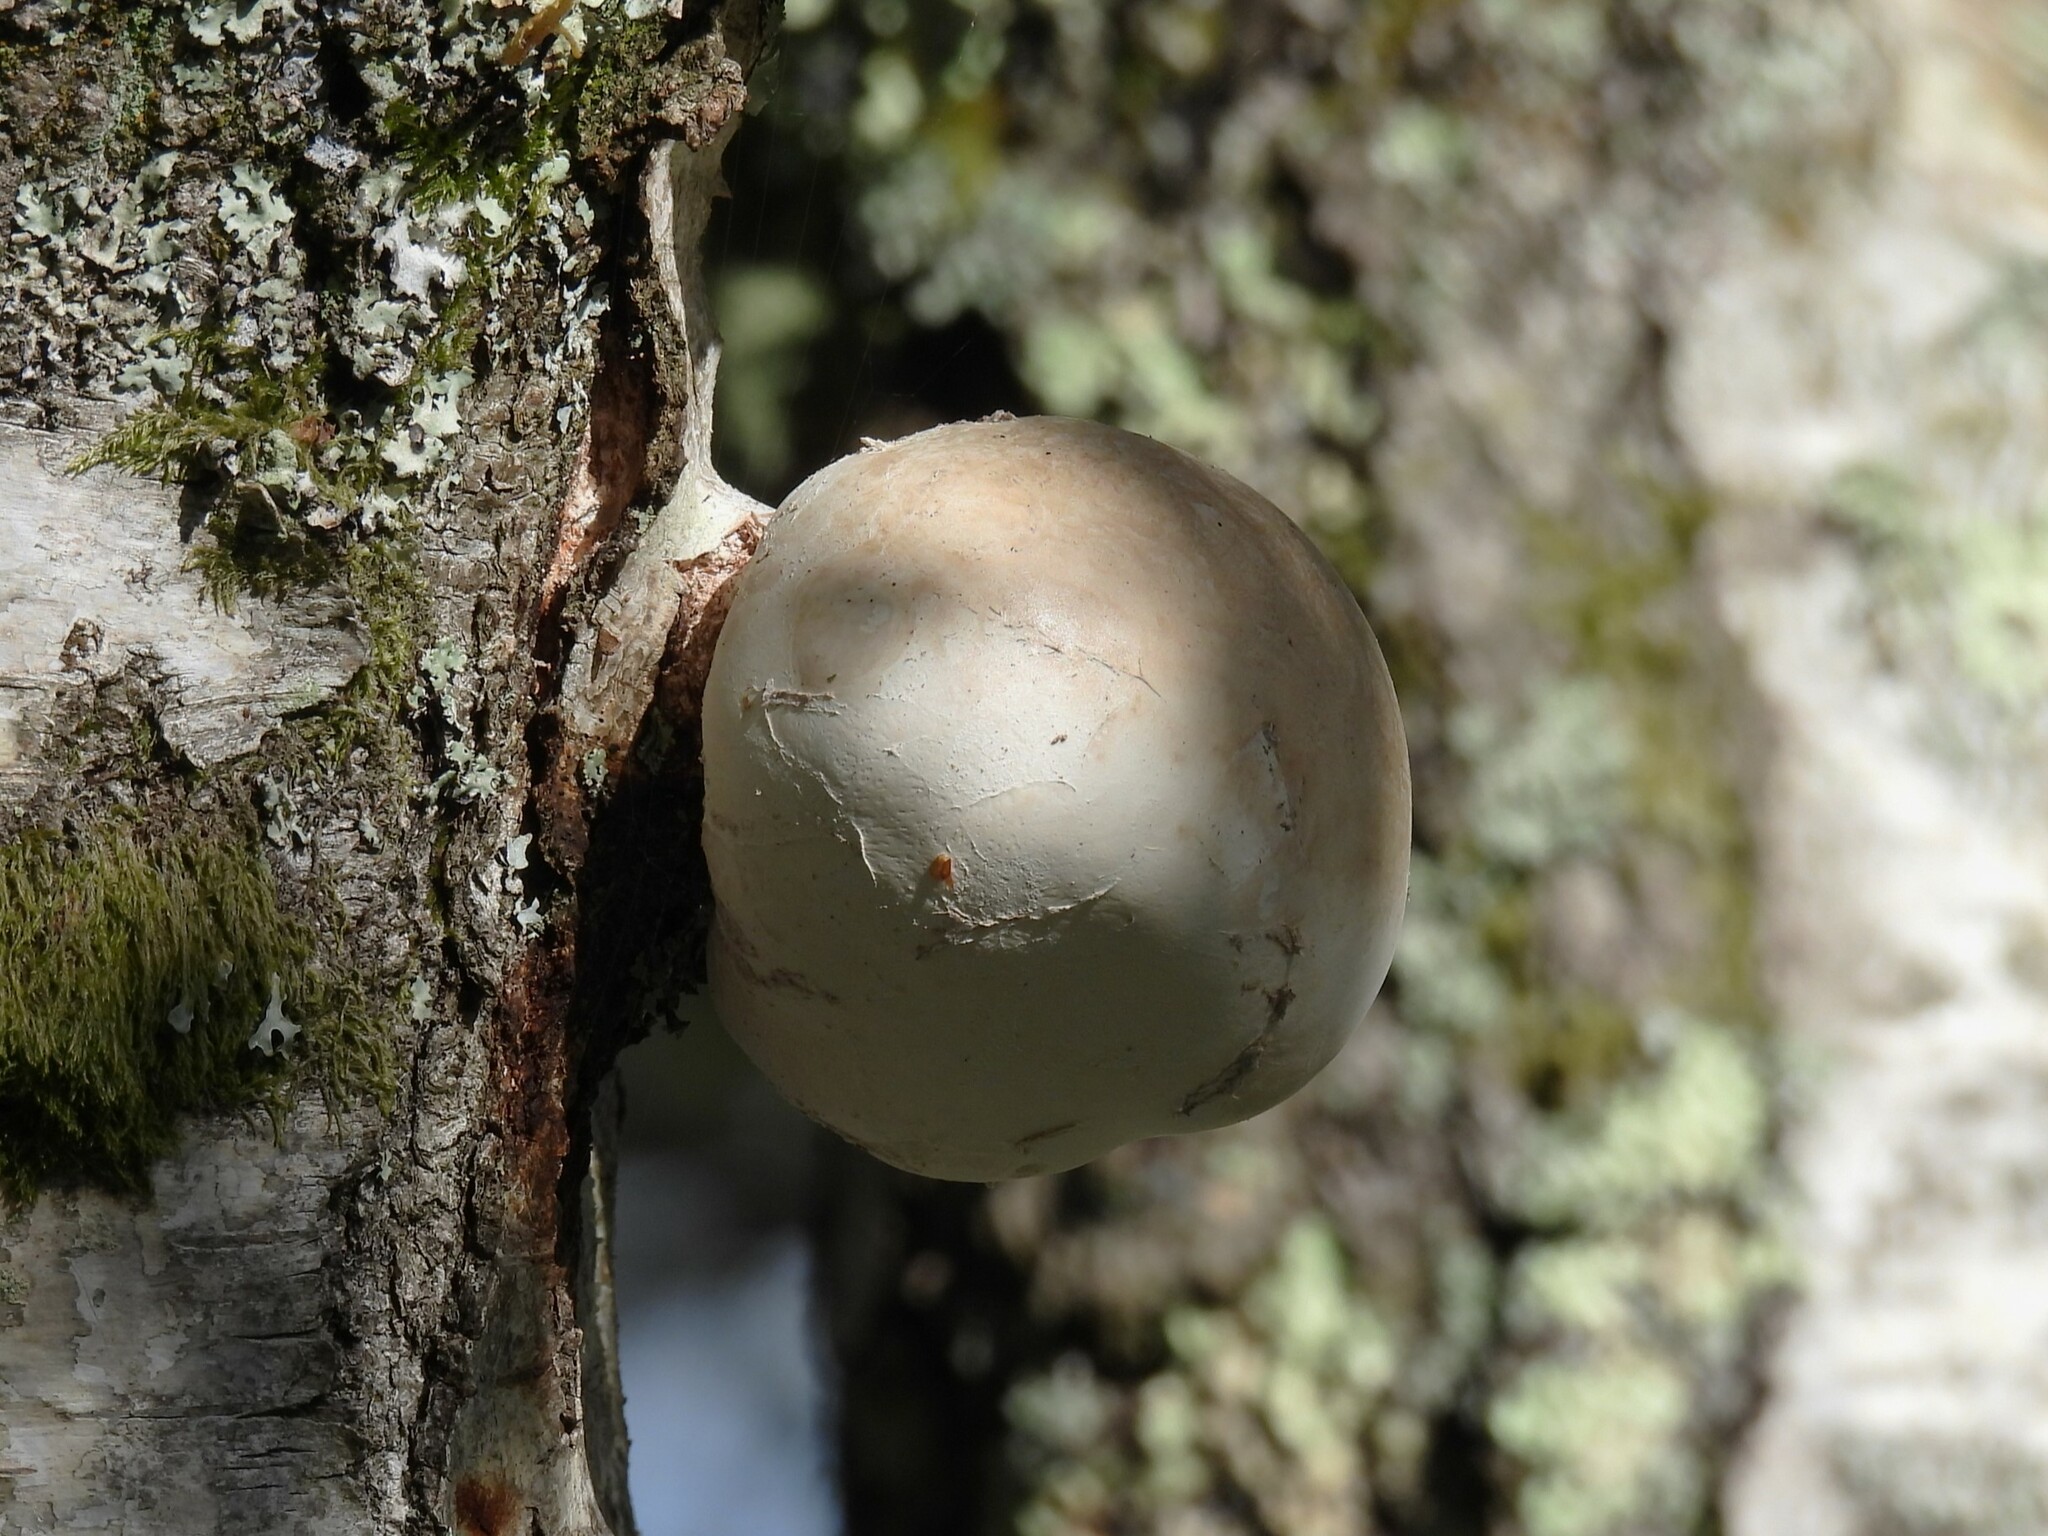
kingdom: Fungi
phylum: Basidiomycota
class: Agaricomycetes
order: Polyporales
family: Fomitopsidaceae
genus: Fomitopsis
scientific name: Fomitopsis betulina
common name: Birch polypore
